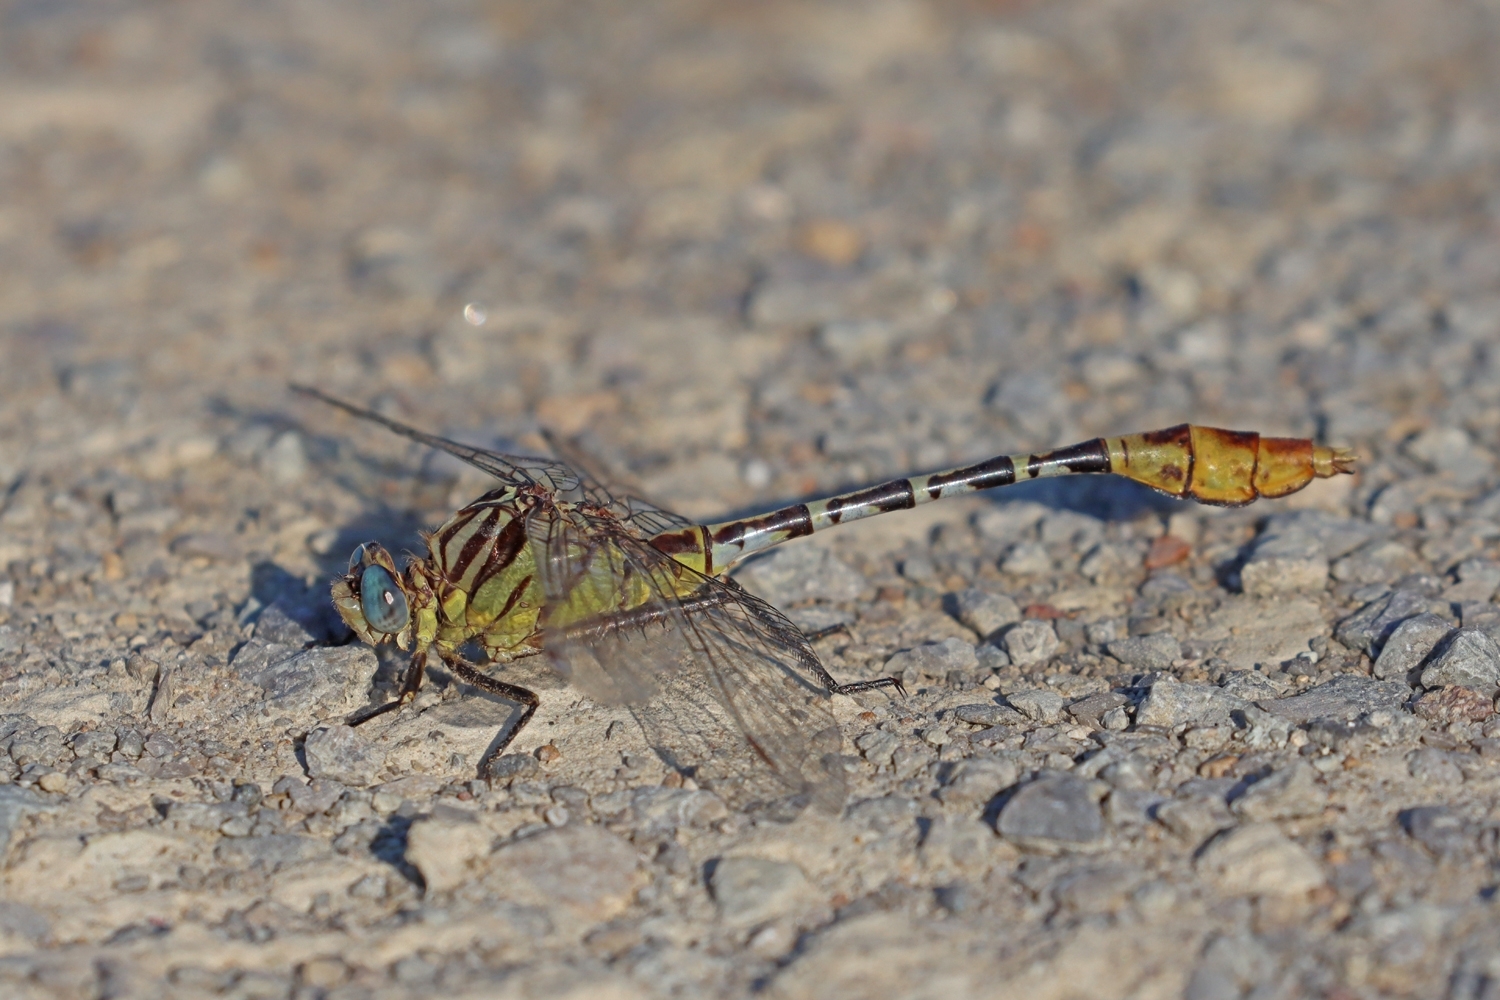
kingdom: Animalia
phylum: Arthropoda
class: Insecta
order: Odonata
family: Gomphidae
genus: Dromogomphus
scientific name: Dromogomphus spoliatus
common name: Flag-tailed spinyleg
